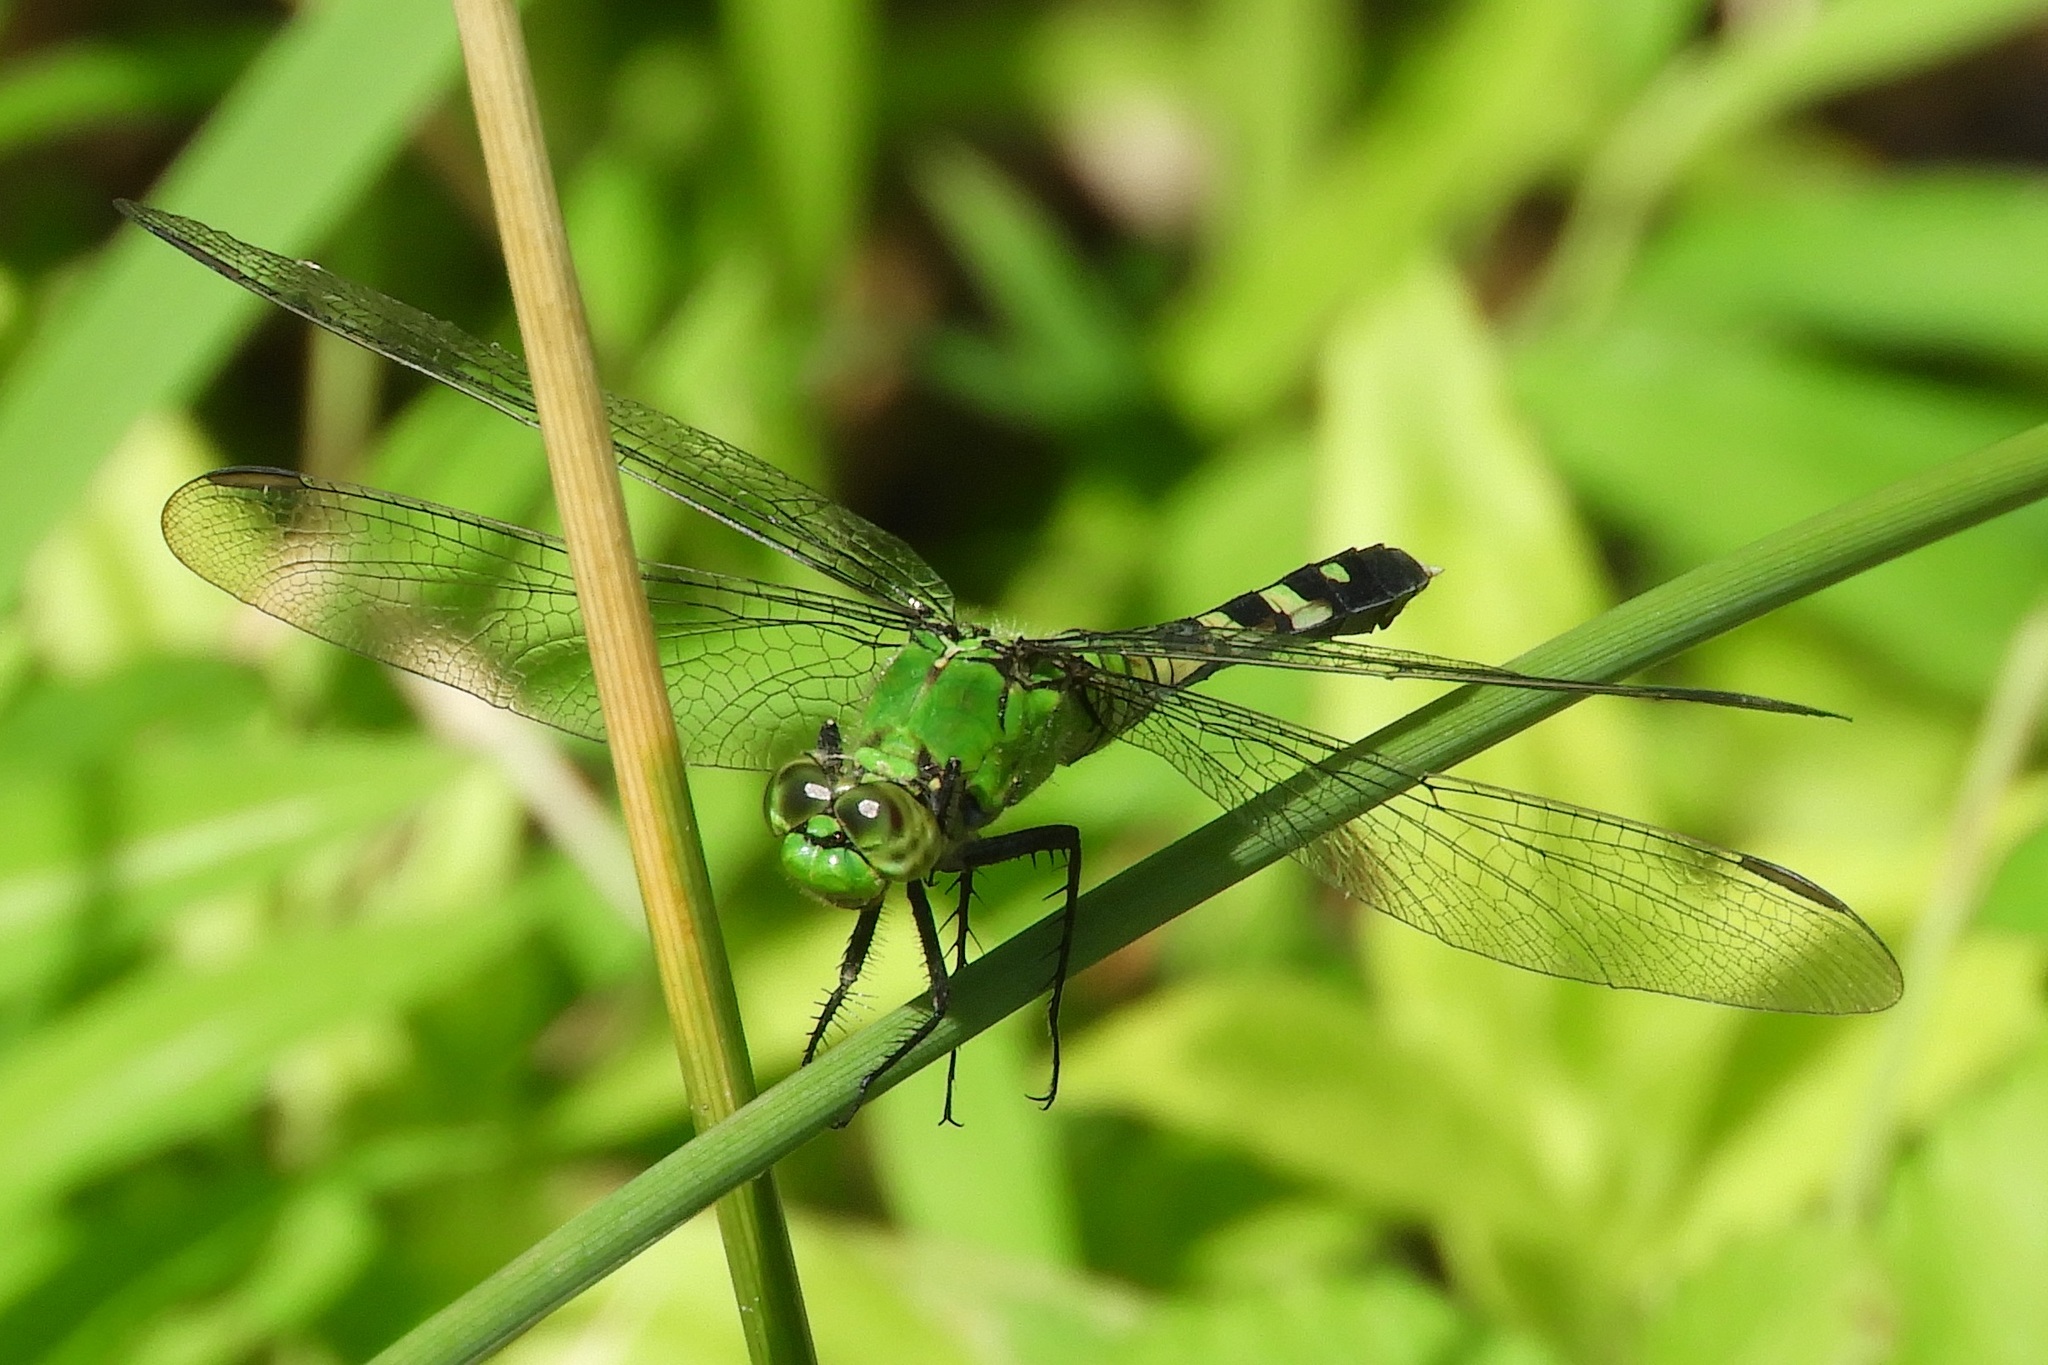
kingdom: Animalia
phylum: Arthropoda
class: Insecta
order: Odonata
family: Libellulidae
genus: Erythemis
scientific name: Erythemis simplicicollis
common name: Eastern pondhawk
